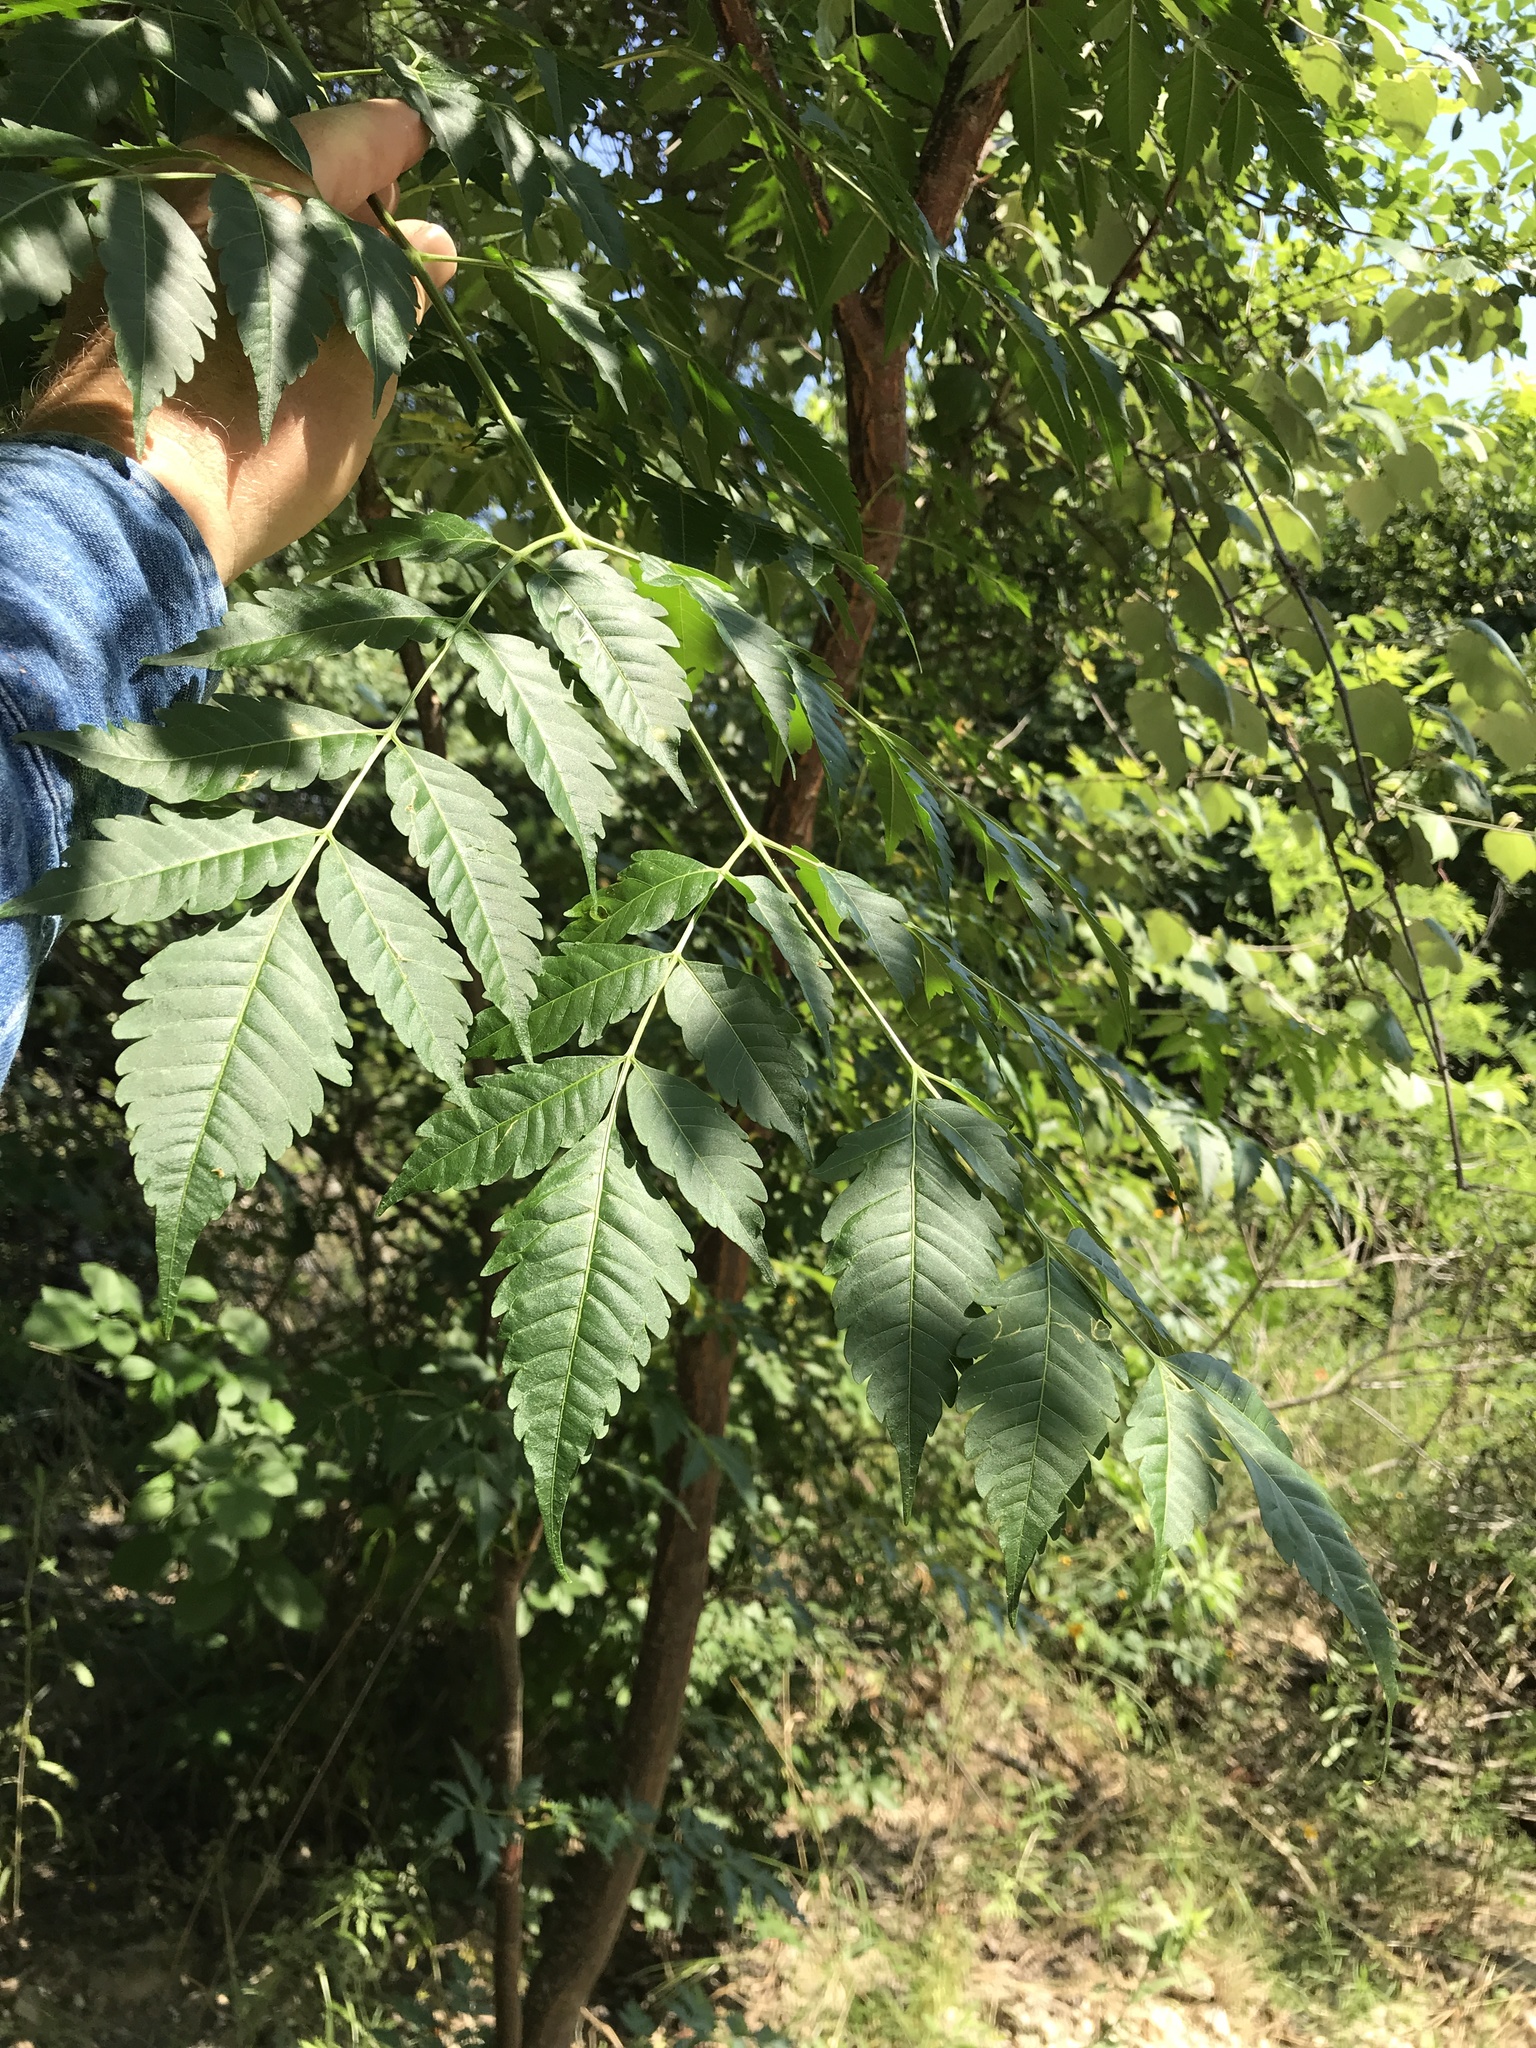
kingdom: Plantae
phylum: Tracheophyta
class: Magnoliopsida
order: Sapindales
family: Meliaceae
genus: Melia
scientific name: Melia azedarach
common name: Chinaberrytree
